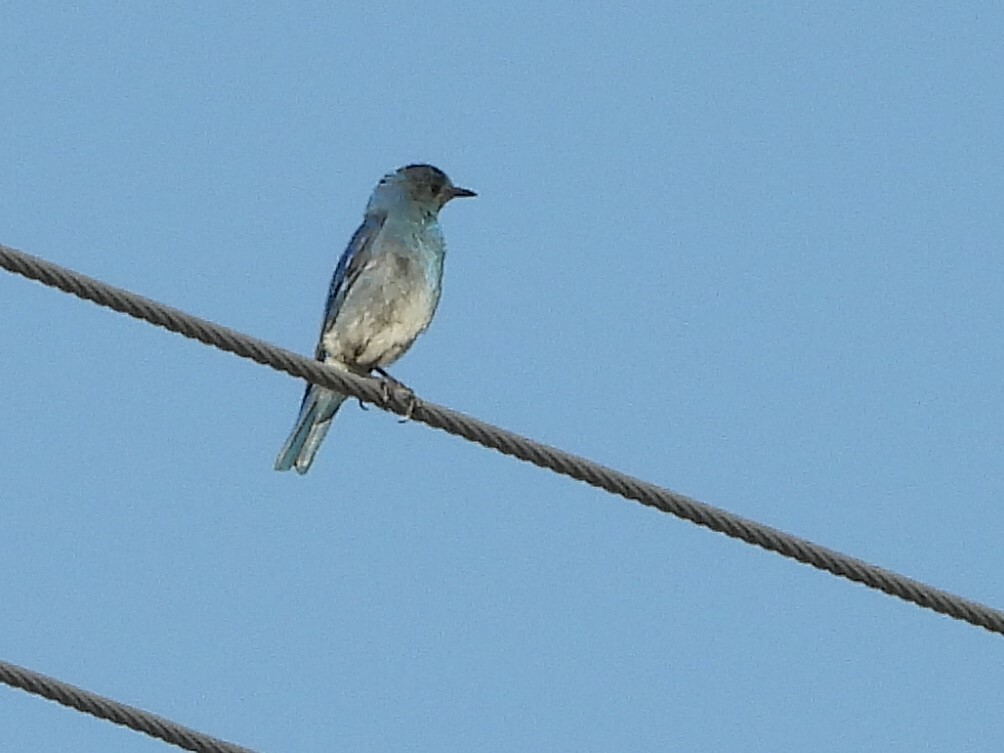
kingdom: Animalia
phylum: Chordata
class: Aves
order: Passeriformes
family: Turdidae
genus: Sialia
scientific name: Sialia currucoides
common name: Mountain bluebird
